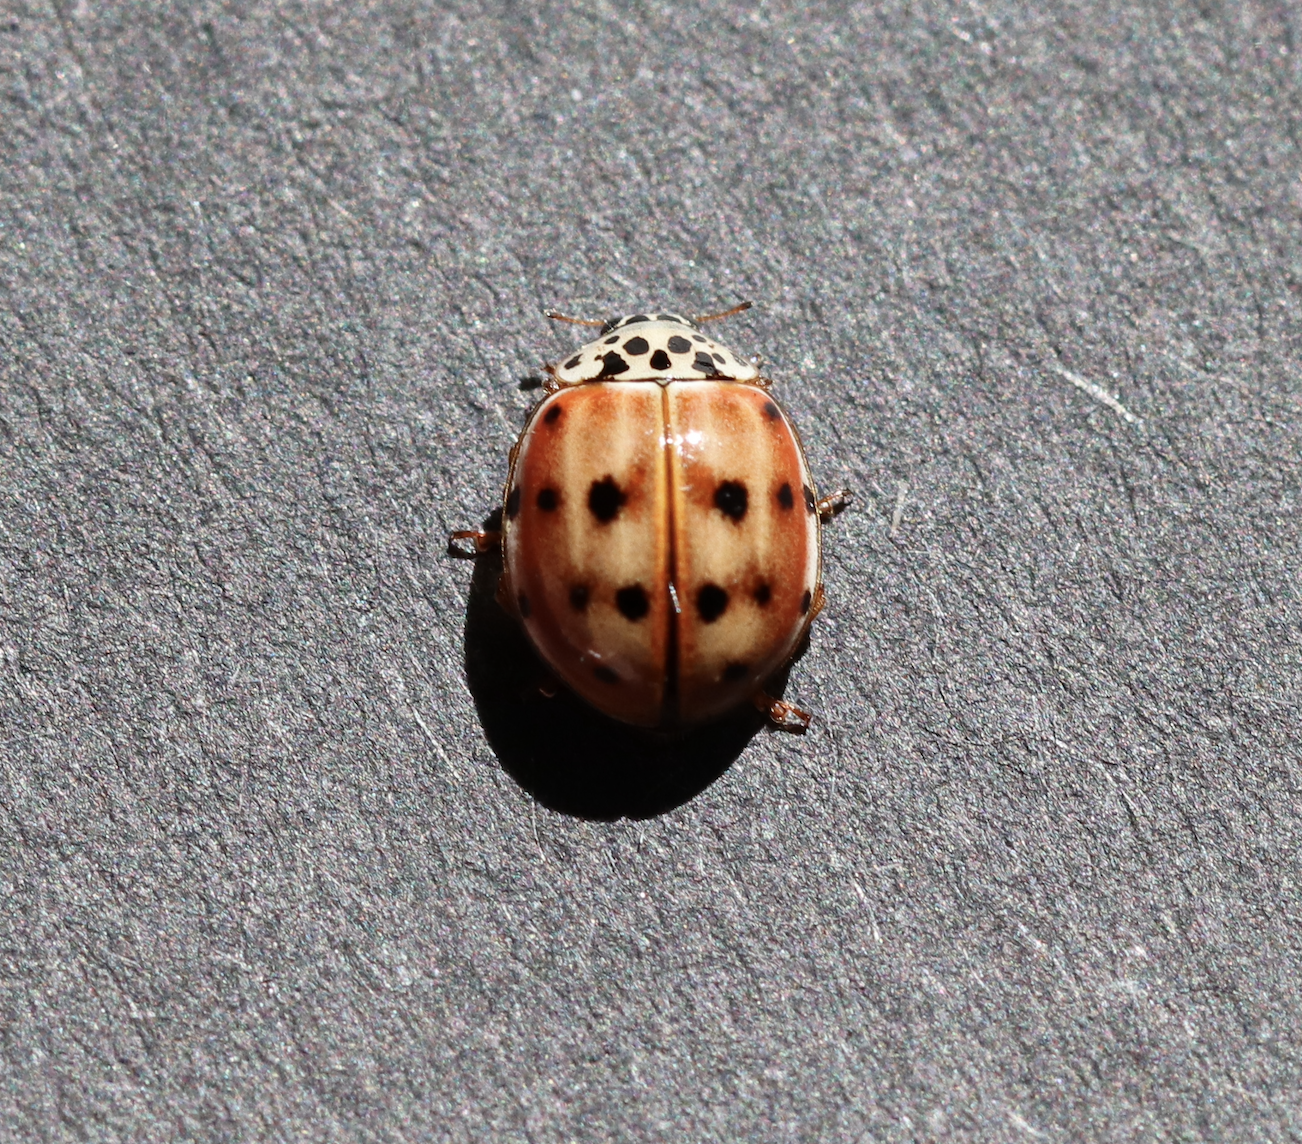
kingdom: Animalia
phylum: Arthropoda
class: Insecta
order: Coleoptera
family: Coccinellidae
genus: Harmonia
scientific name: Harmonia quadripunctata
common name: Cream-streaked ladybird
